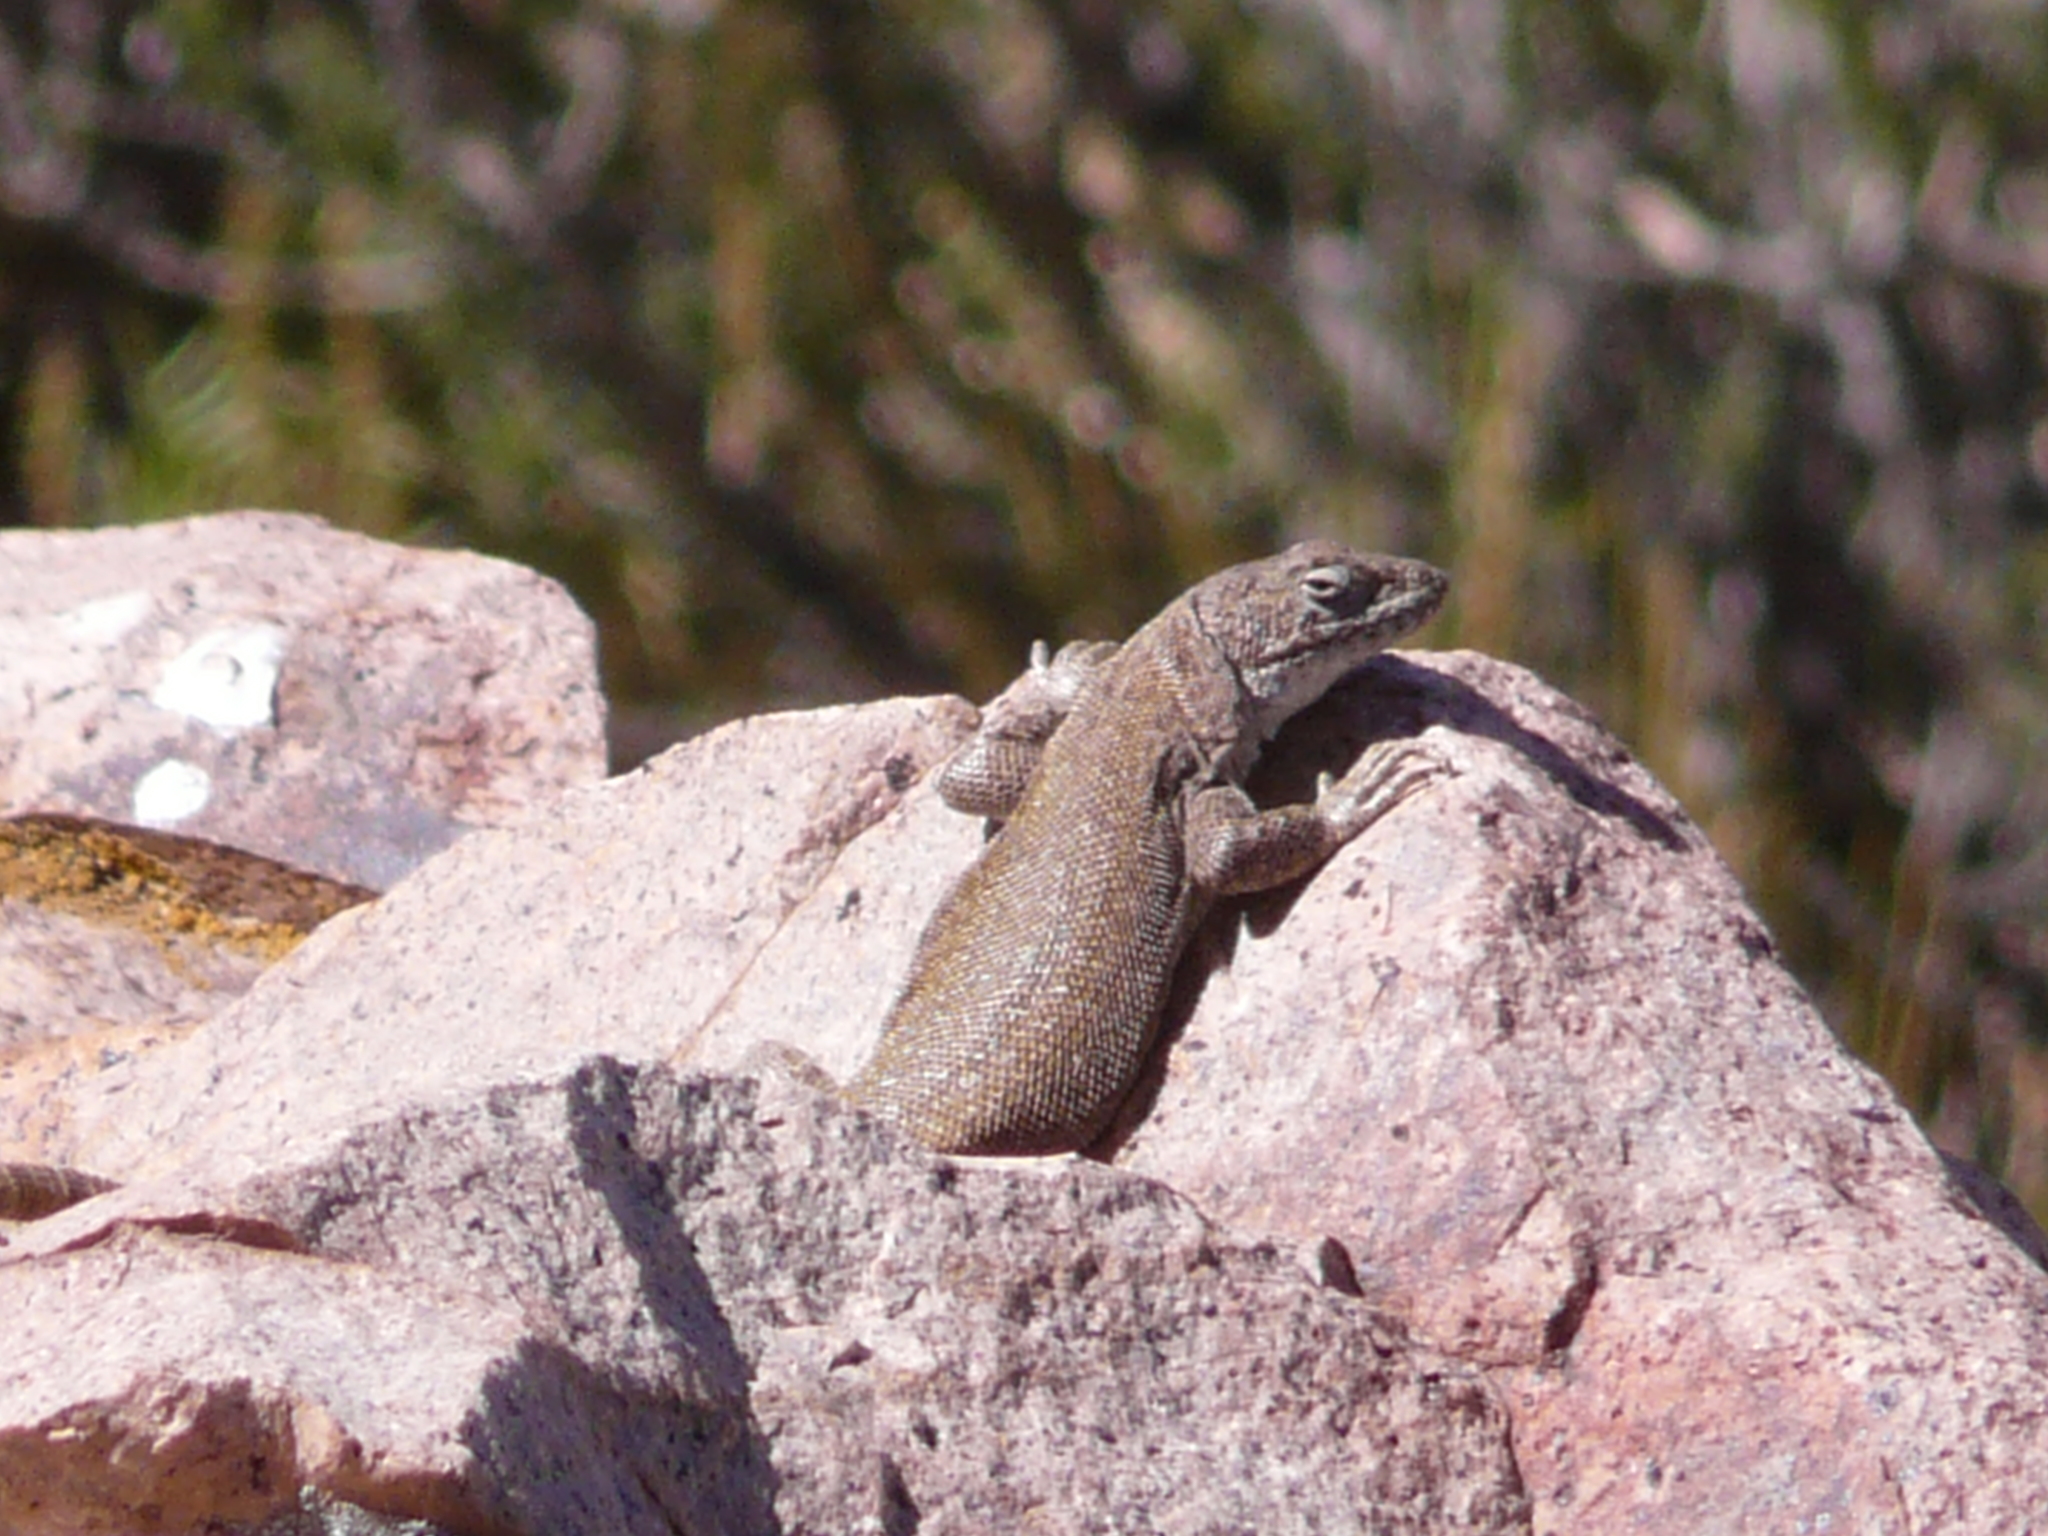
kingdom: Animalia
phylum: Chordata
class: Squamata
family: Liolaemidae
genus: Liolaemus
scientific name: Liolaemus austromendocinus
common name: Austromendocino tree iguana
